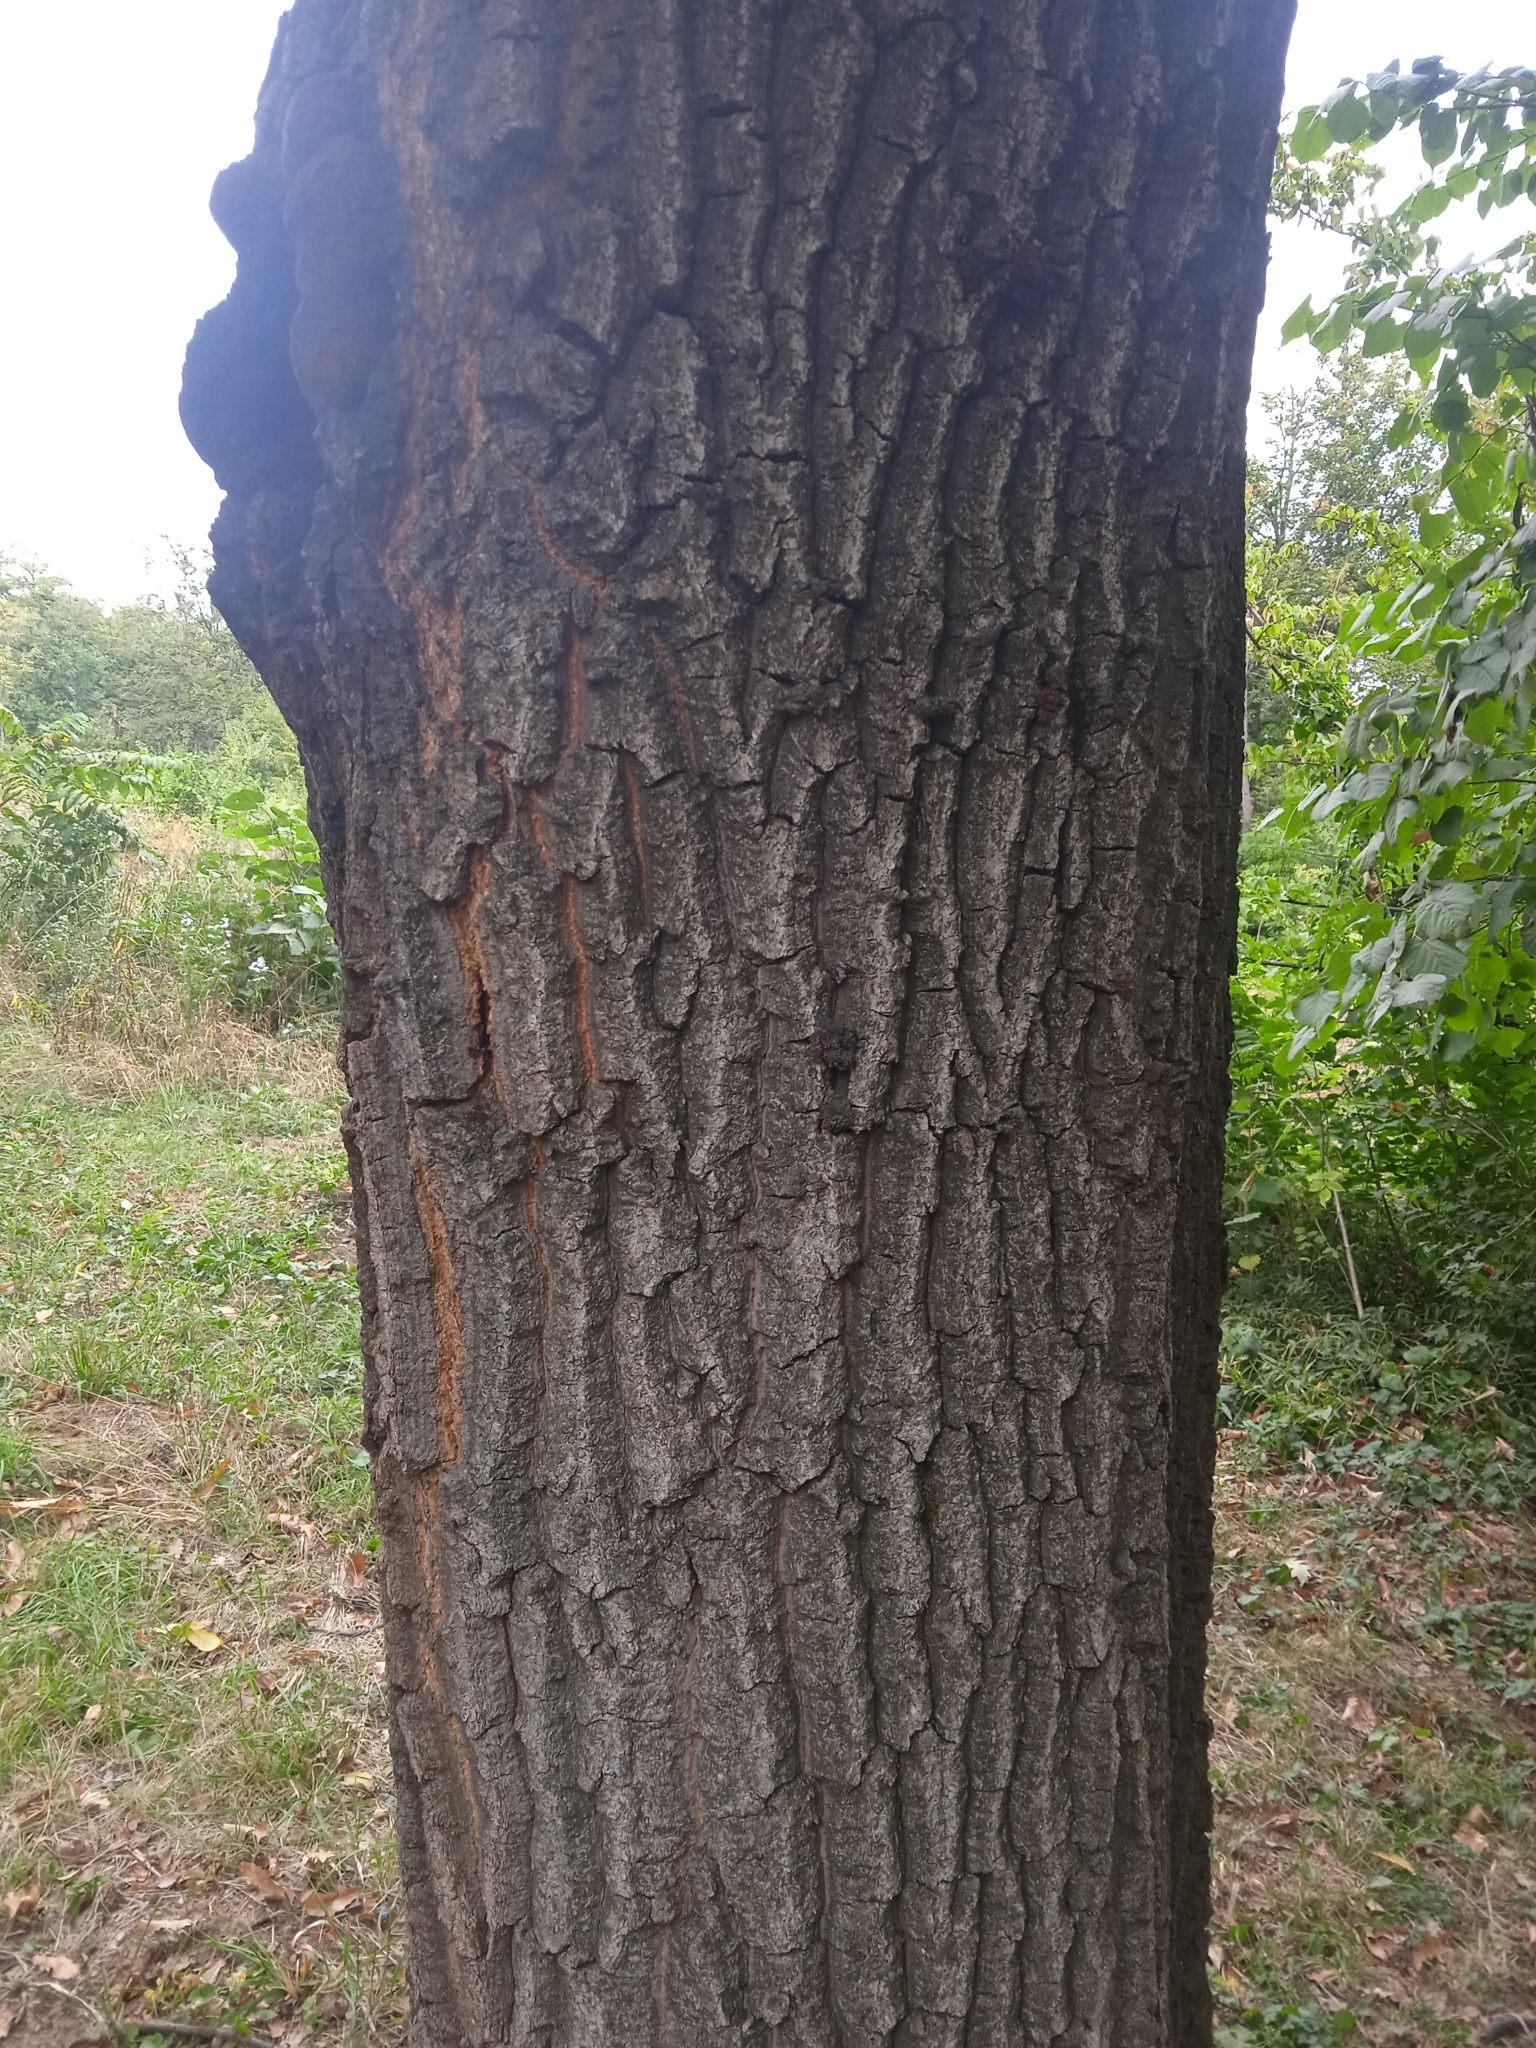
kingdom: Plantae
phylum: Tracheophyta
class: Magnoliopsida
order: Fagales
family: Fagaceae
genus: Quercus
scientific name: Quercus cerris
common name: Turkey oak
